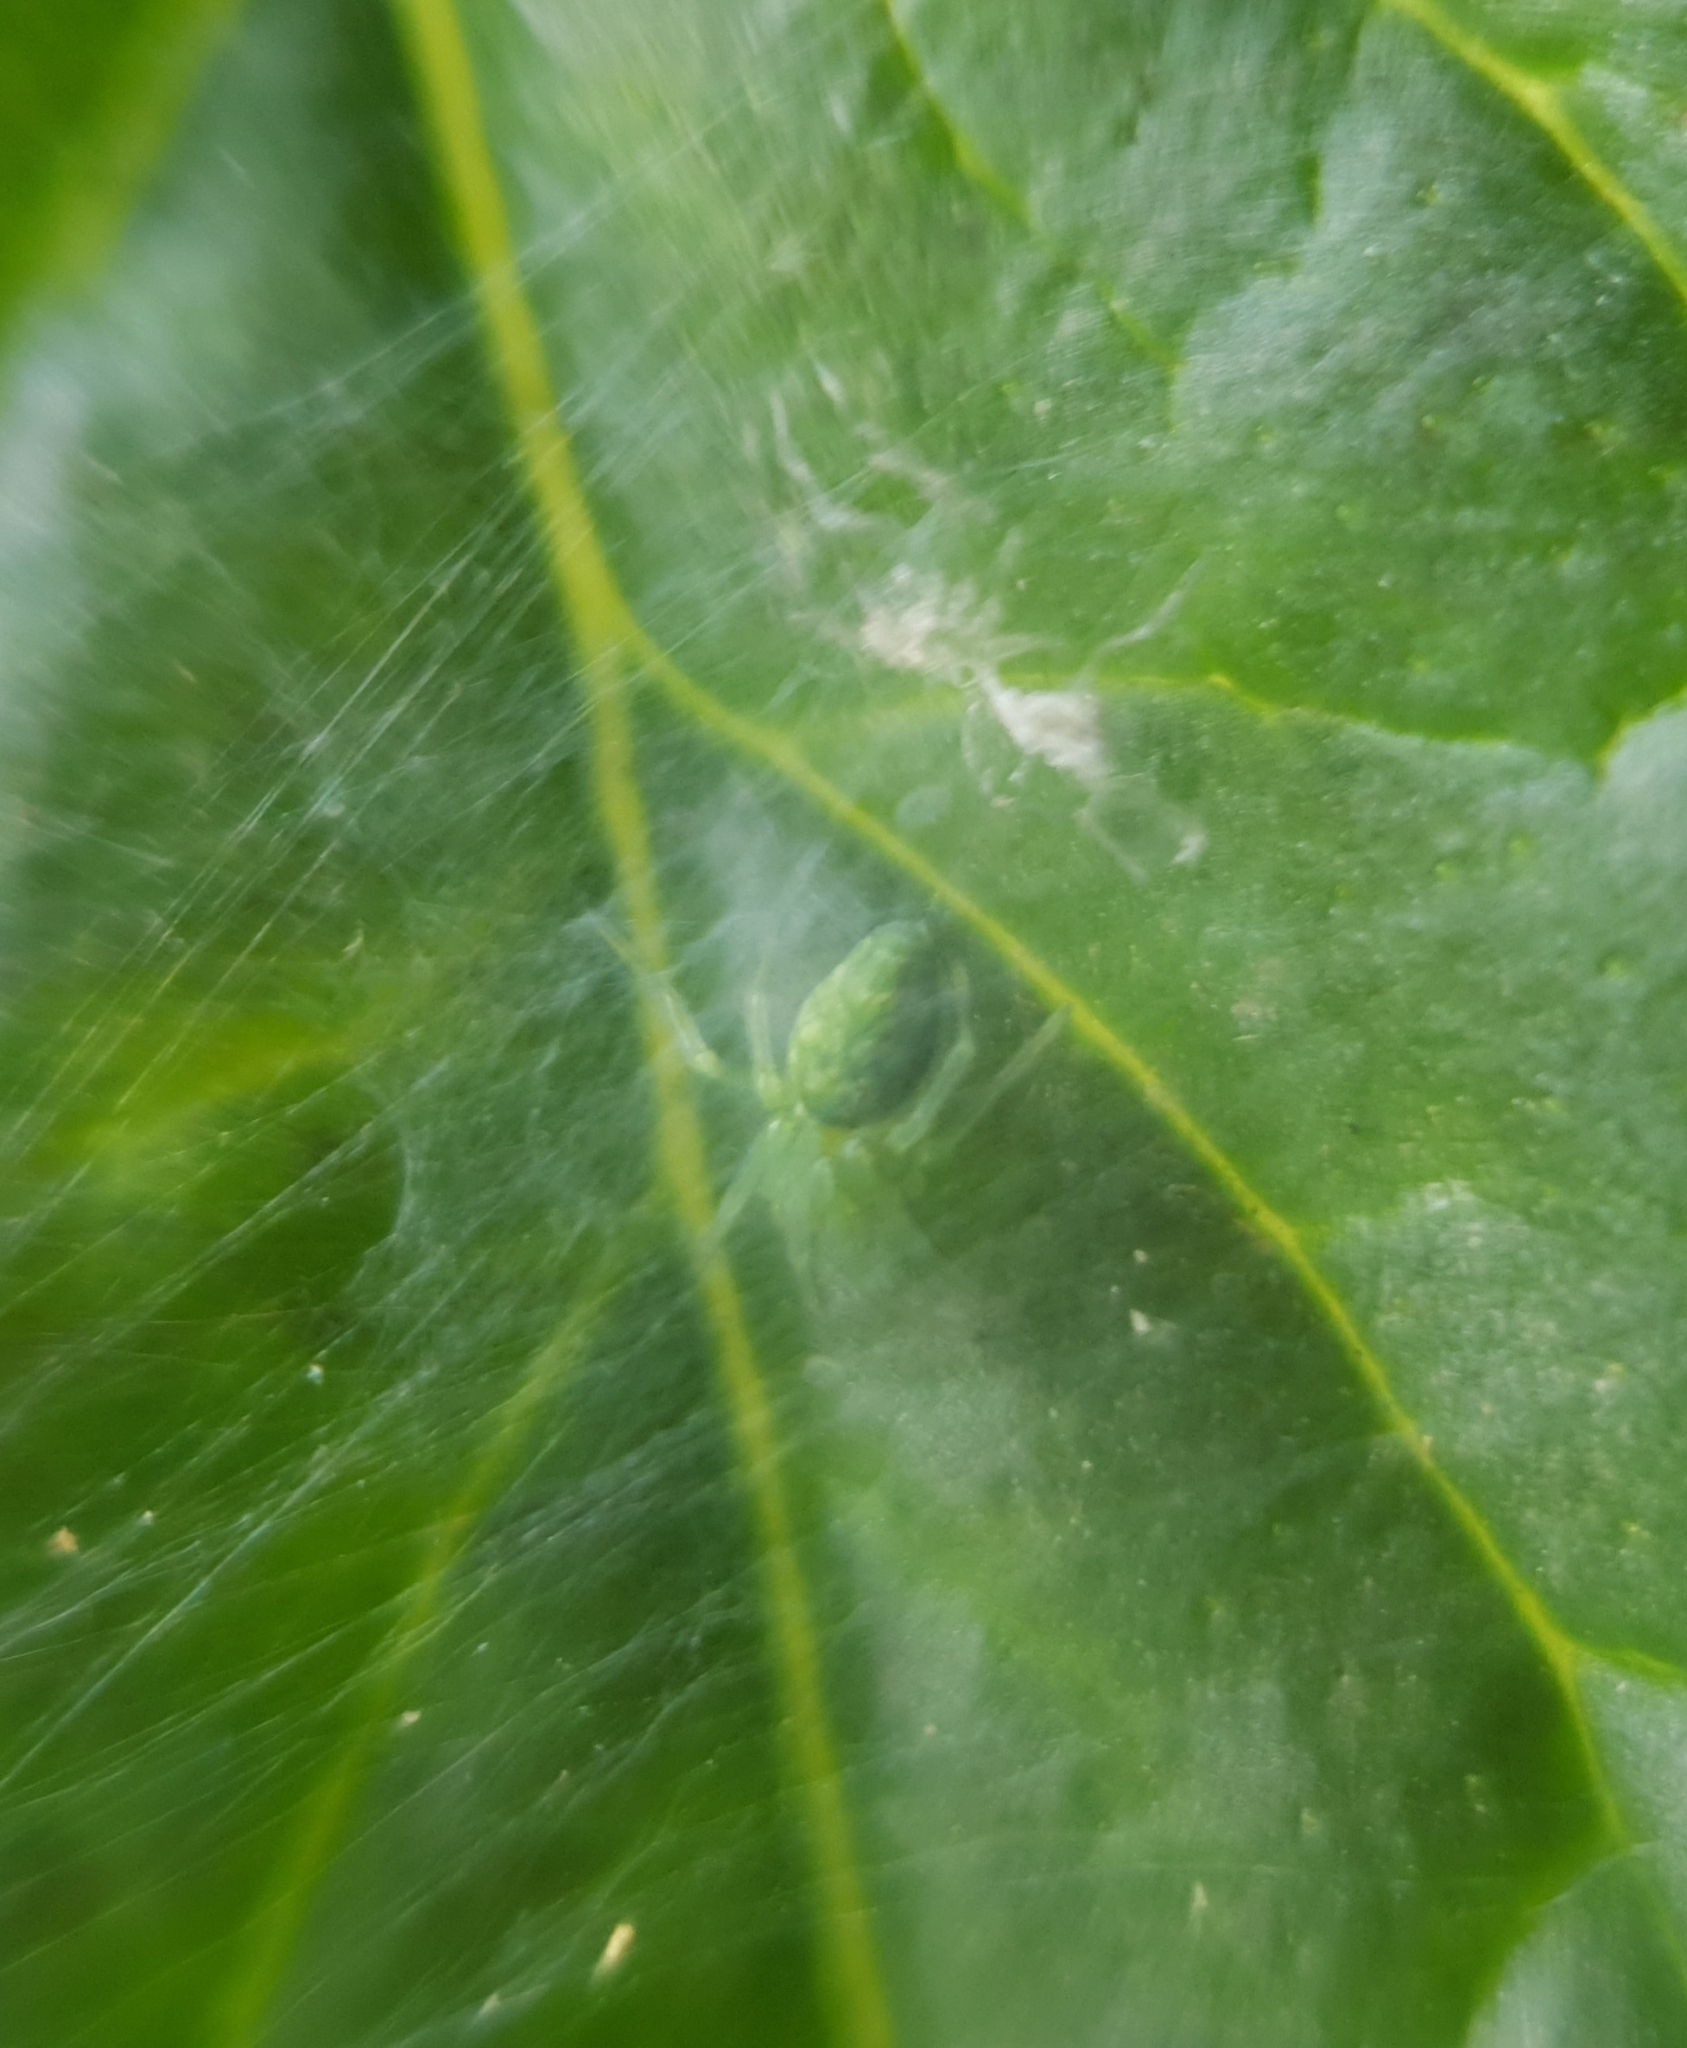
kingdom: Animalia
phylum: Arthropoda
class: Arachnida
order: Araneae
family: Dictynidae
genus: Nigma
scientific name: Nigma walckenaeri
